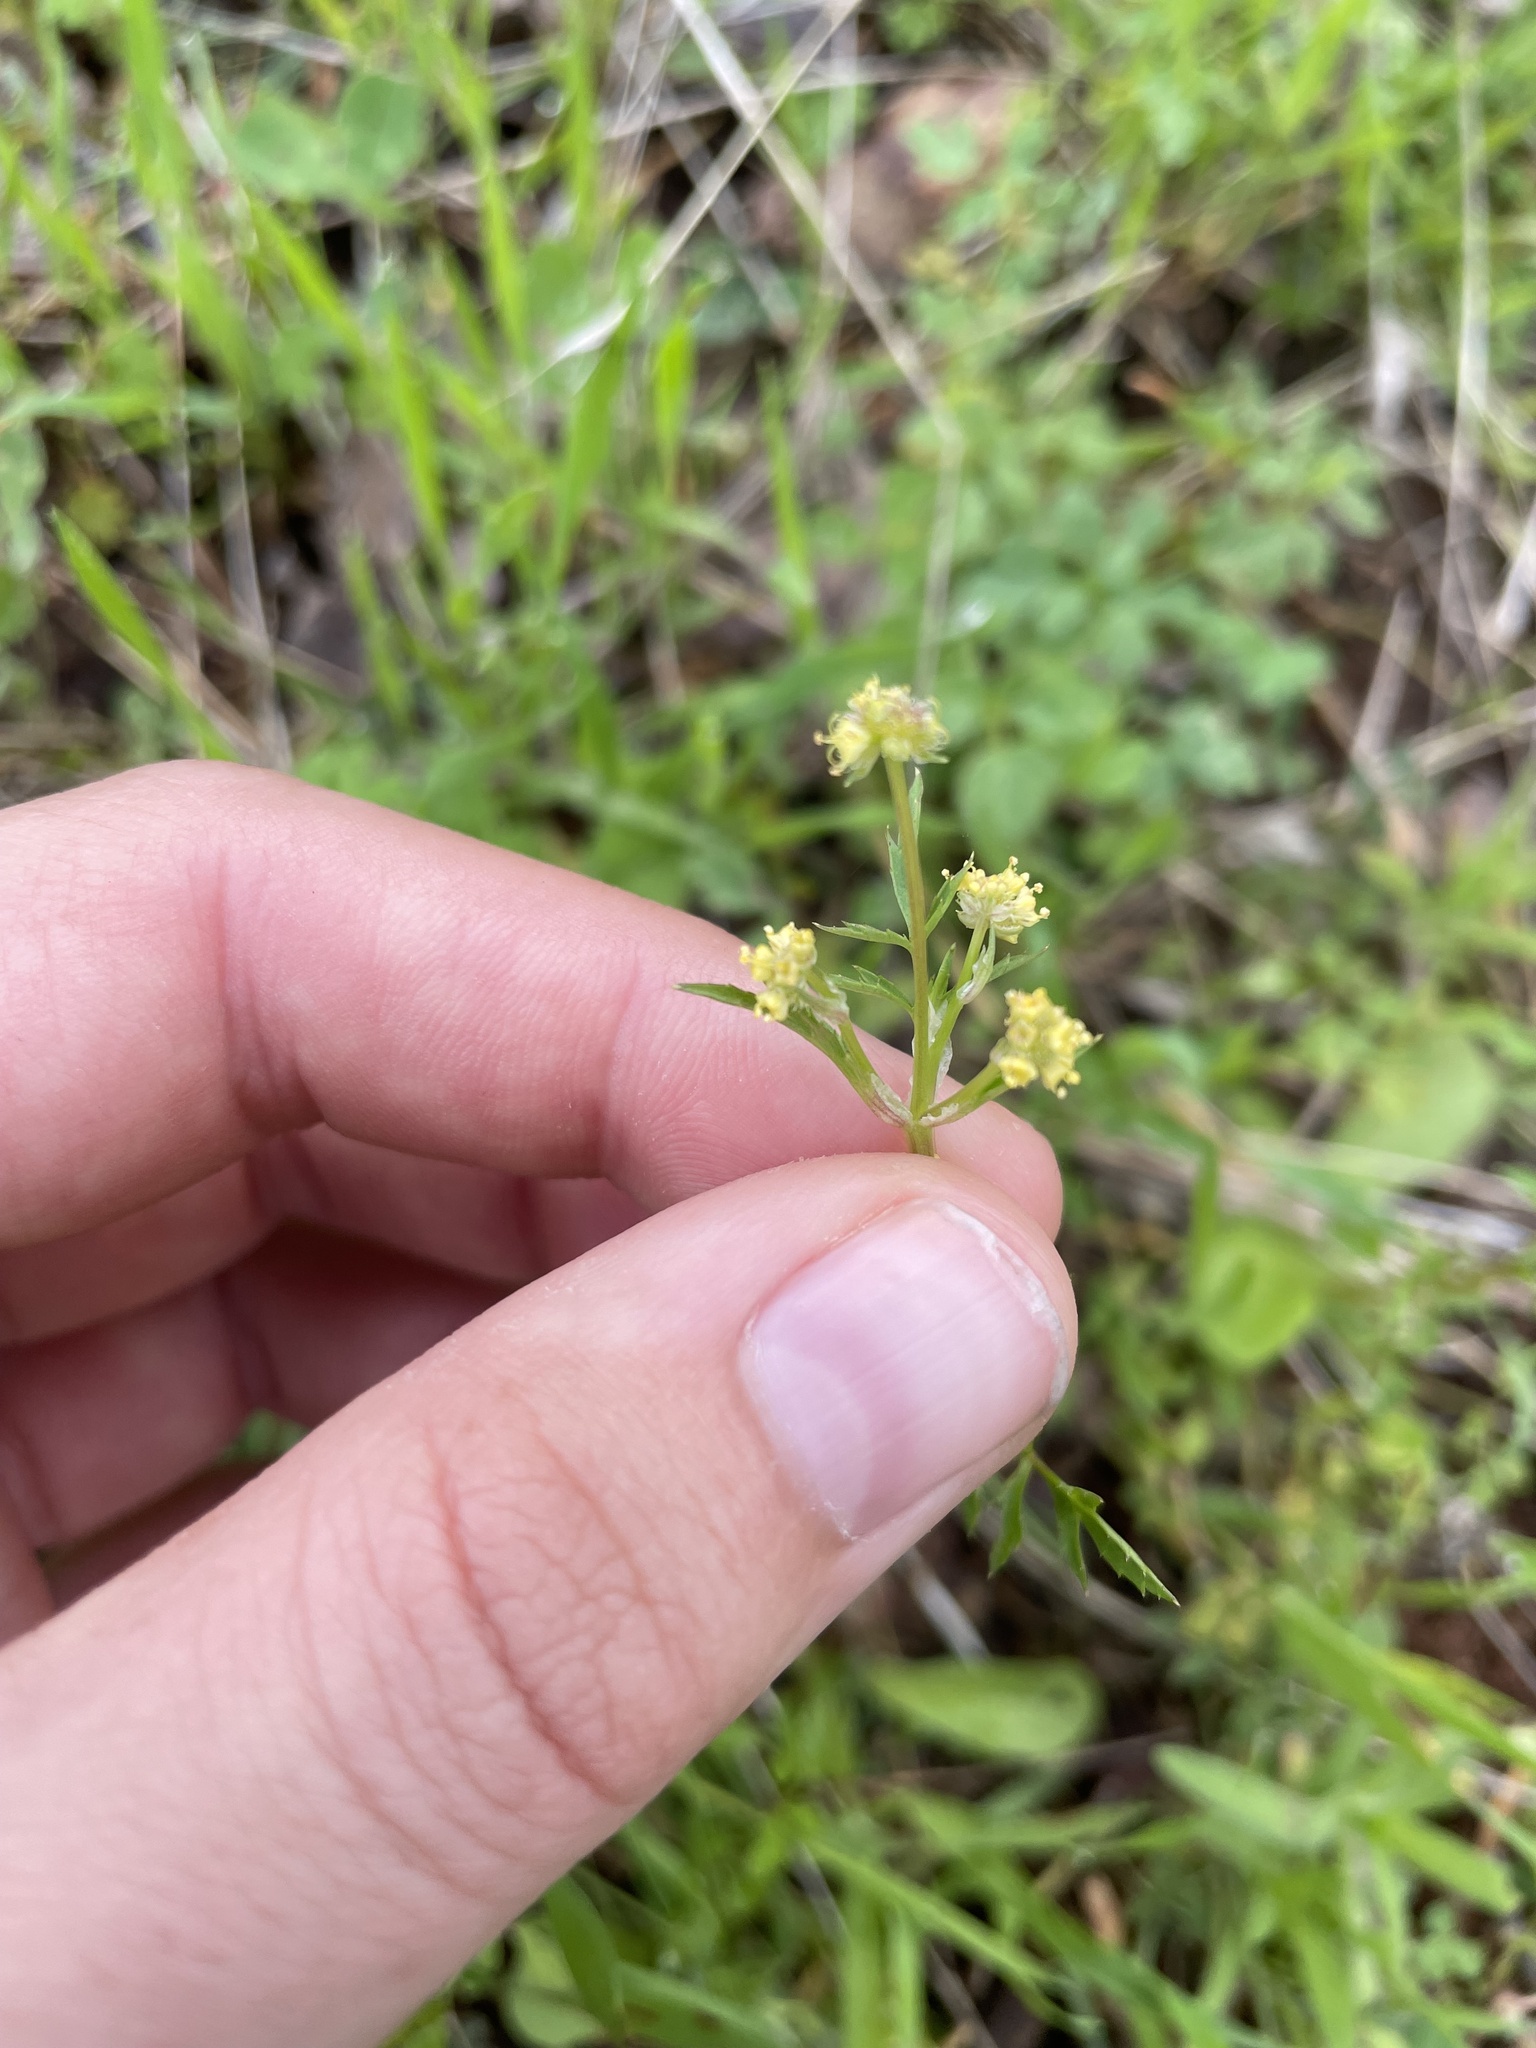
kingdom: Plantae
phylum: Tracheophyta
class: Magnoliopsida
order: Apiales
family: Apiaceae
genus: Sanicula
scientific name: Sanicula bipinnata
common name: Poison sanicle
